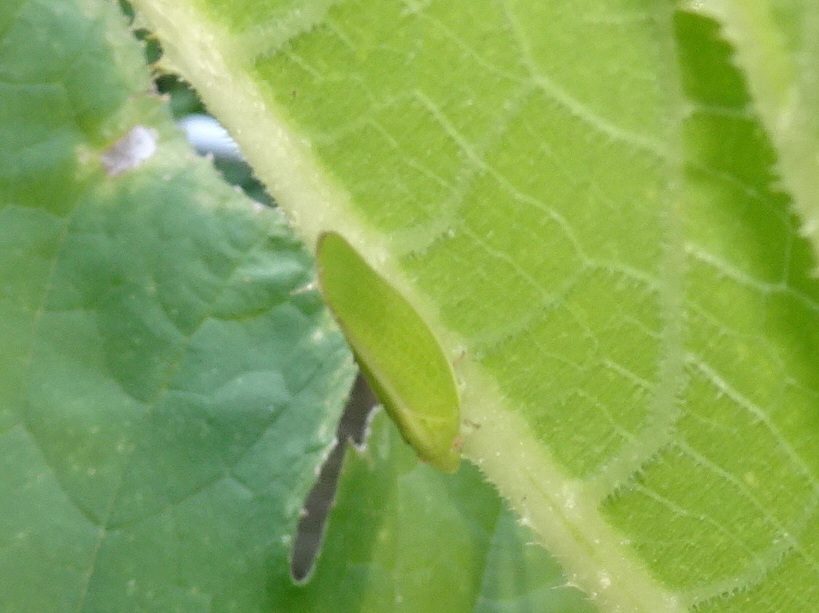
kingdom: Animalia
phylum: Arthropoda
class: Insecta
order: Hemiptera
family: Acanaloniidae
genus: Acanalonia
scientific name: Acanalonia conica
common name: Green cone-headed planthopper
